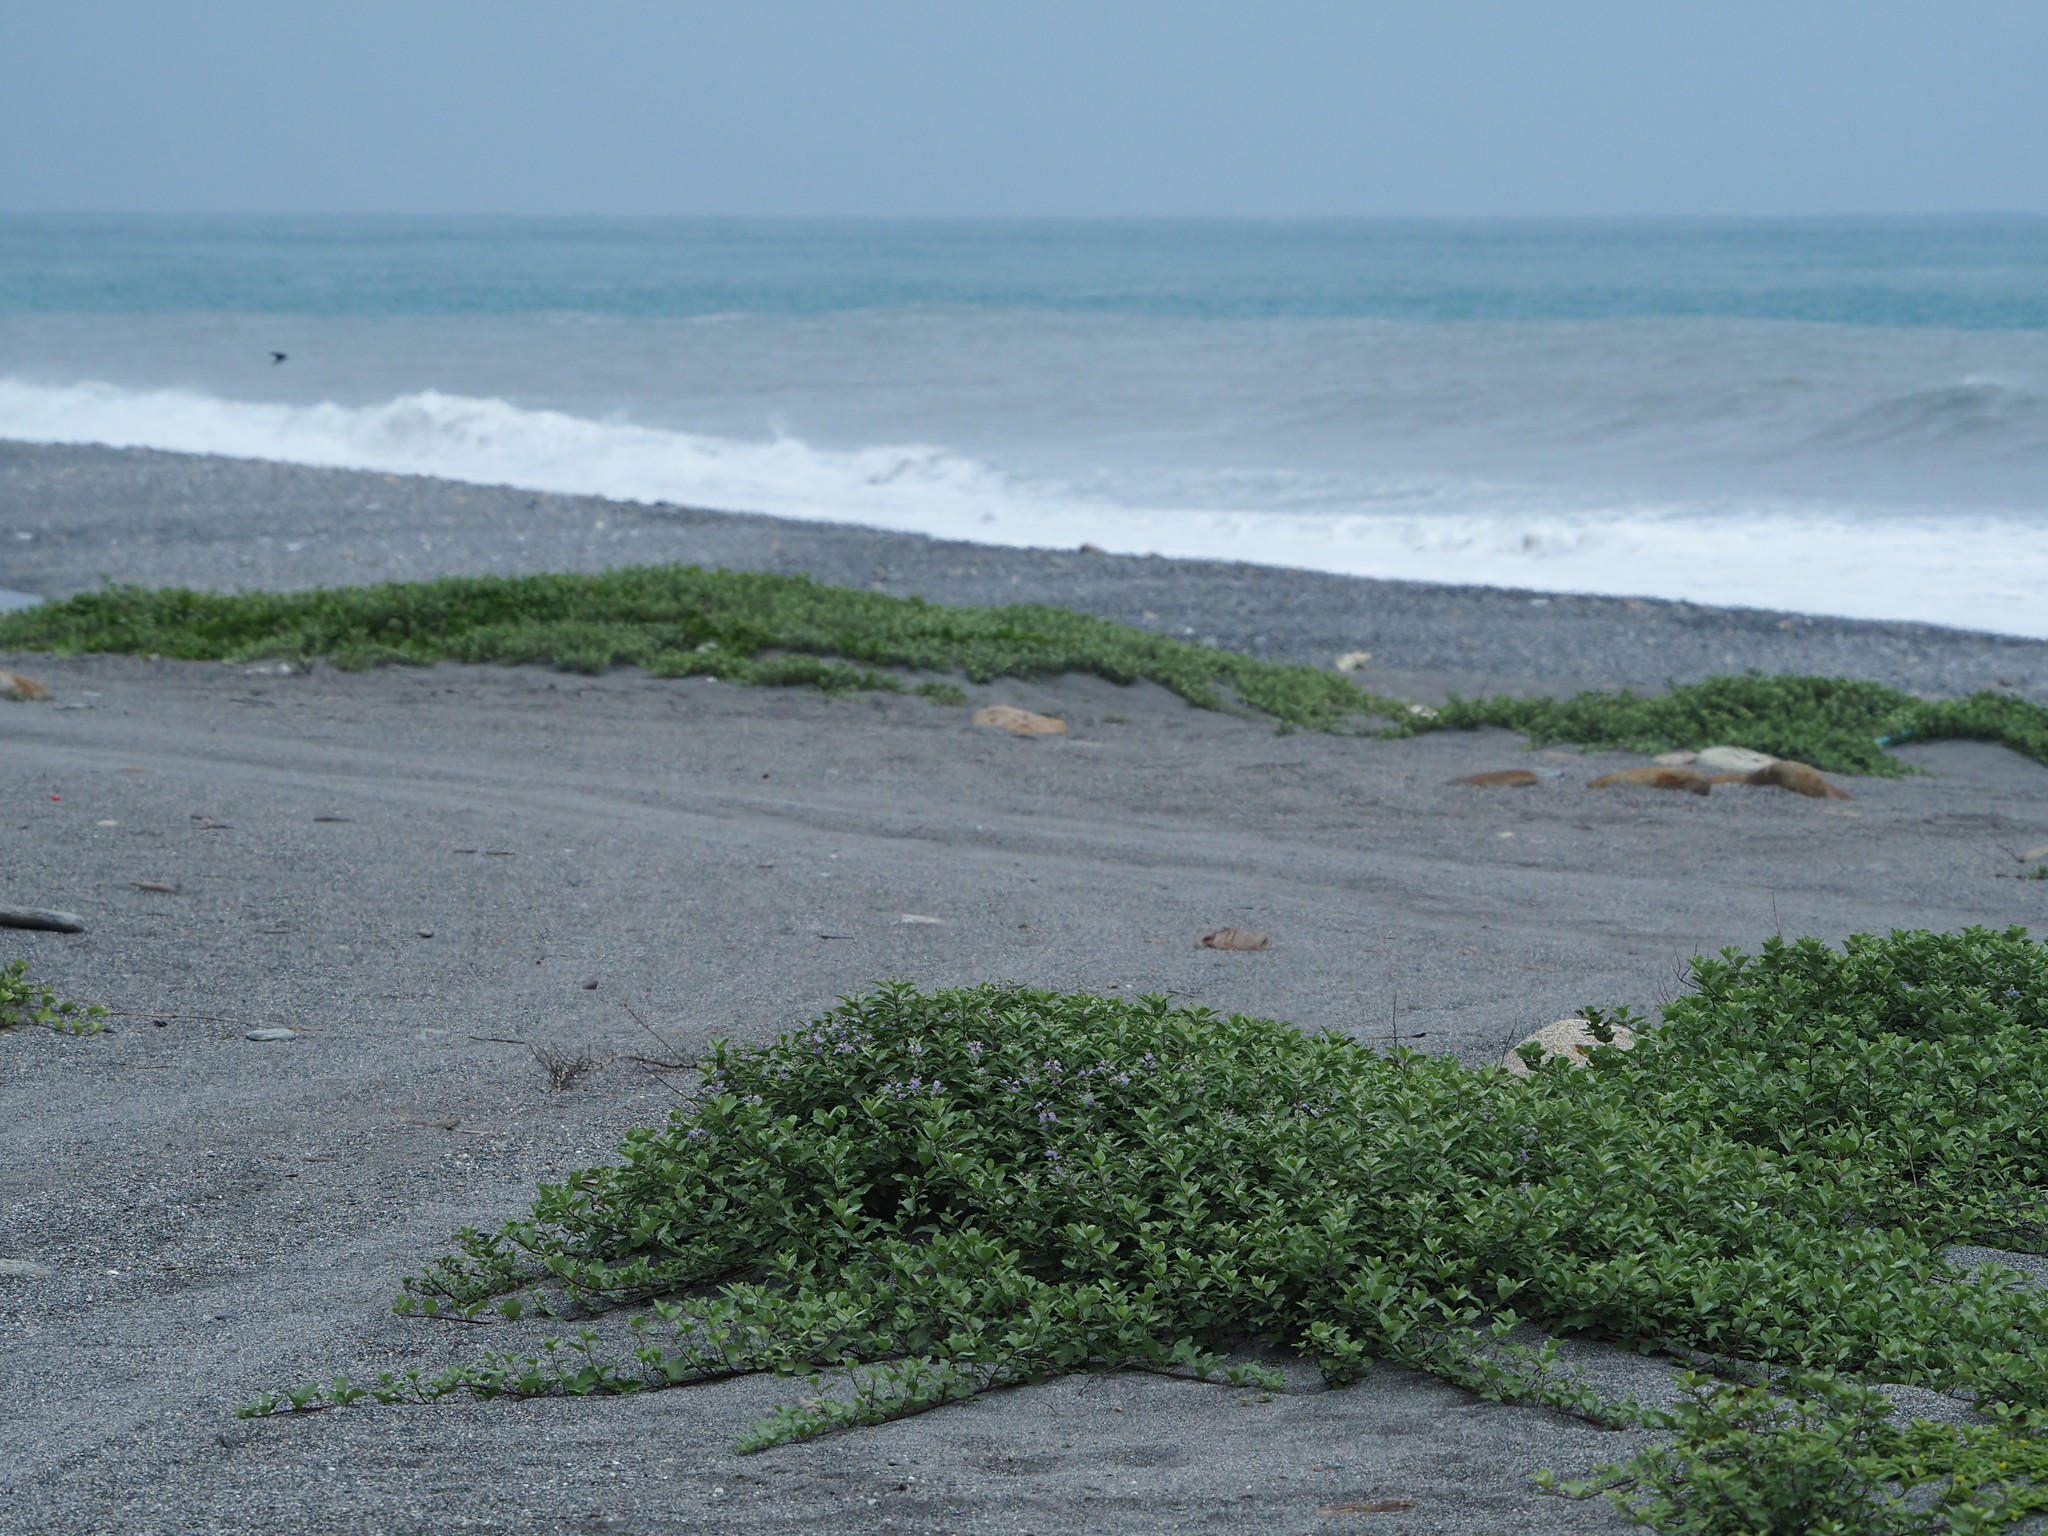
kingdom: Plantae
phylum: Tracheophyta
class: Magnoliopsida
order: Lamiales
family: Lamiaceae
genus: Vitex
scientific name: Vitex rotundifolia
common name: Beach vitex
